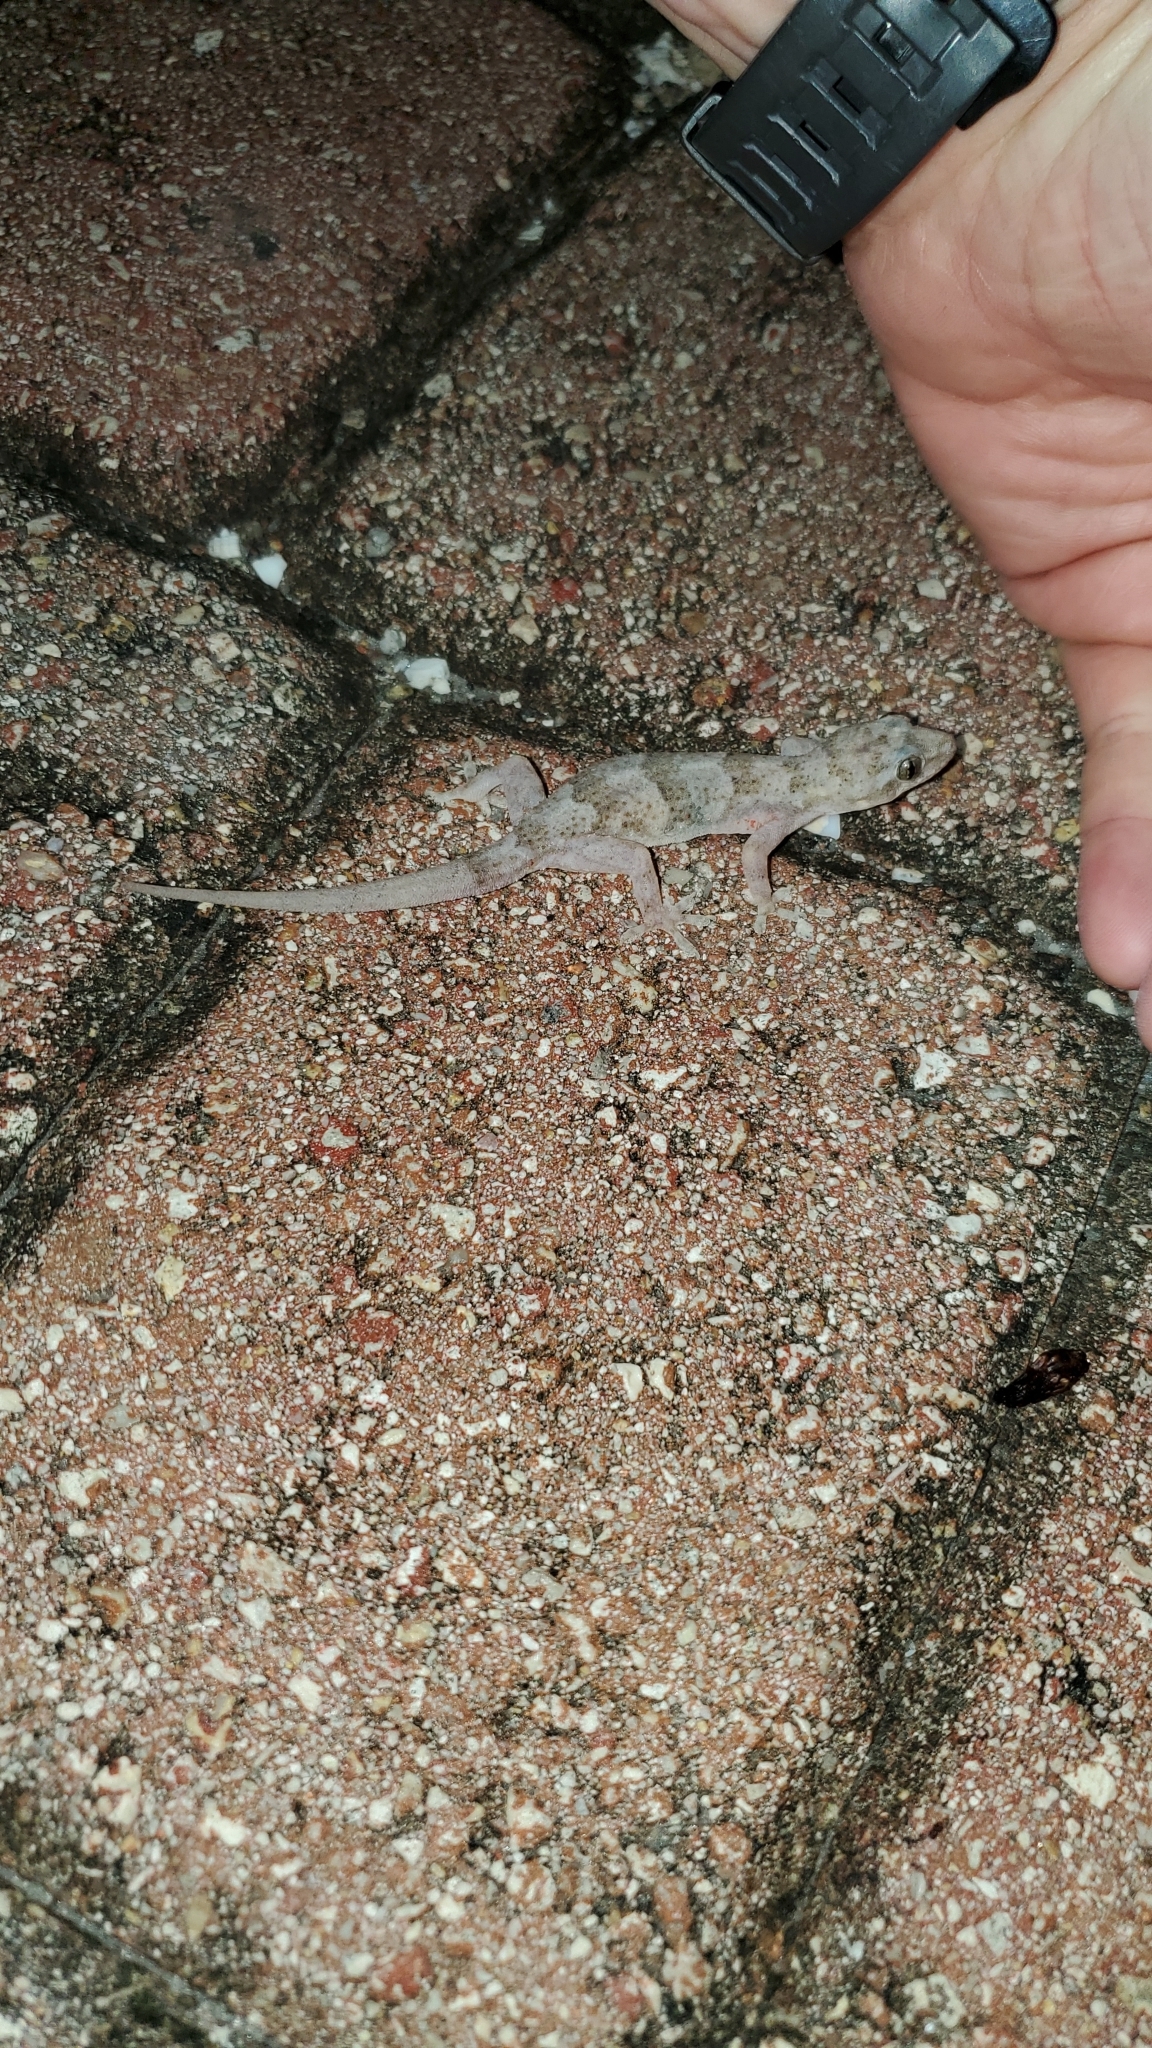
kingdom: Animalia
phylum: Chordata
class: Squamata
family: Gekkonidae
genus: Hemidactylus
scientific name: Hemidactylus mabouia
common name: House gecko
